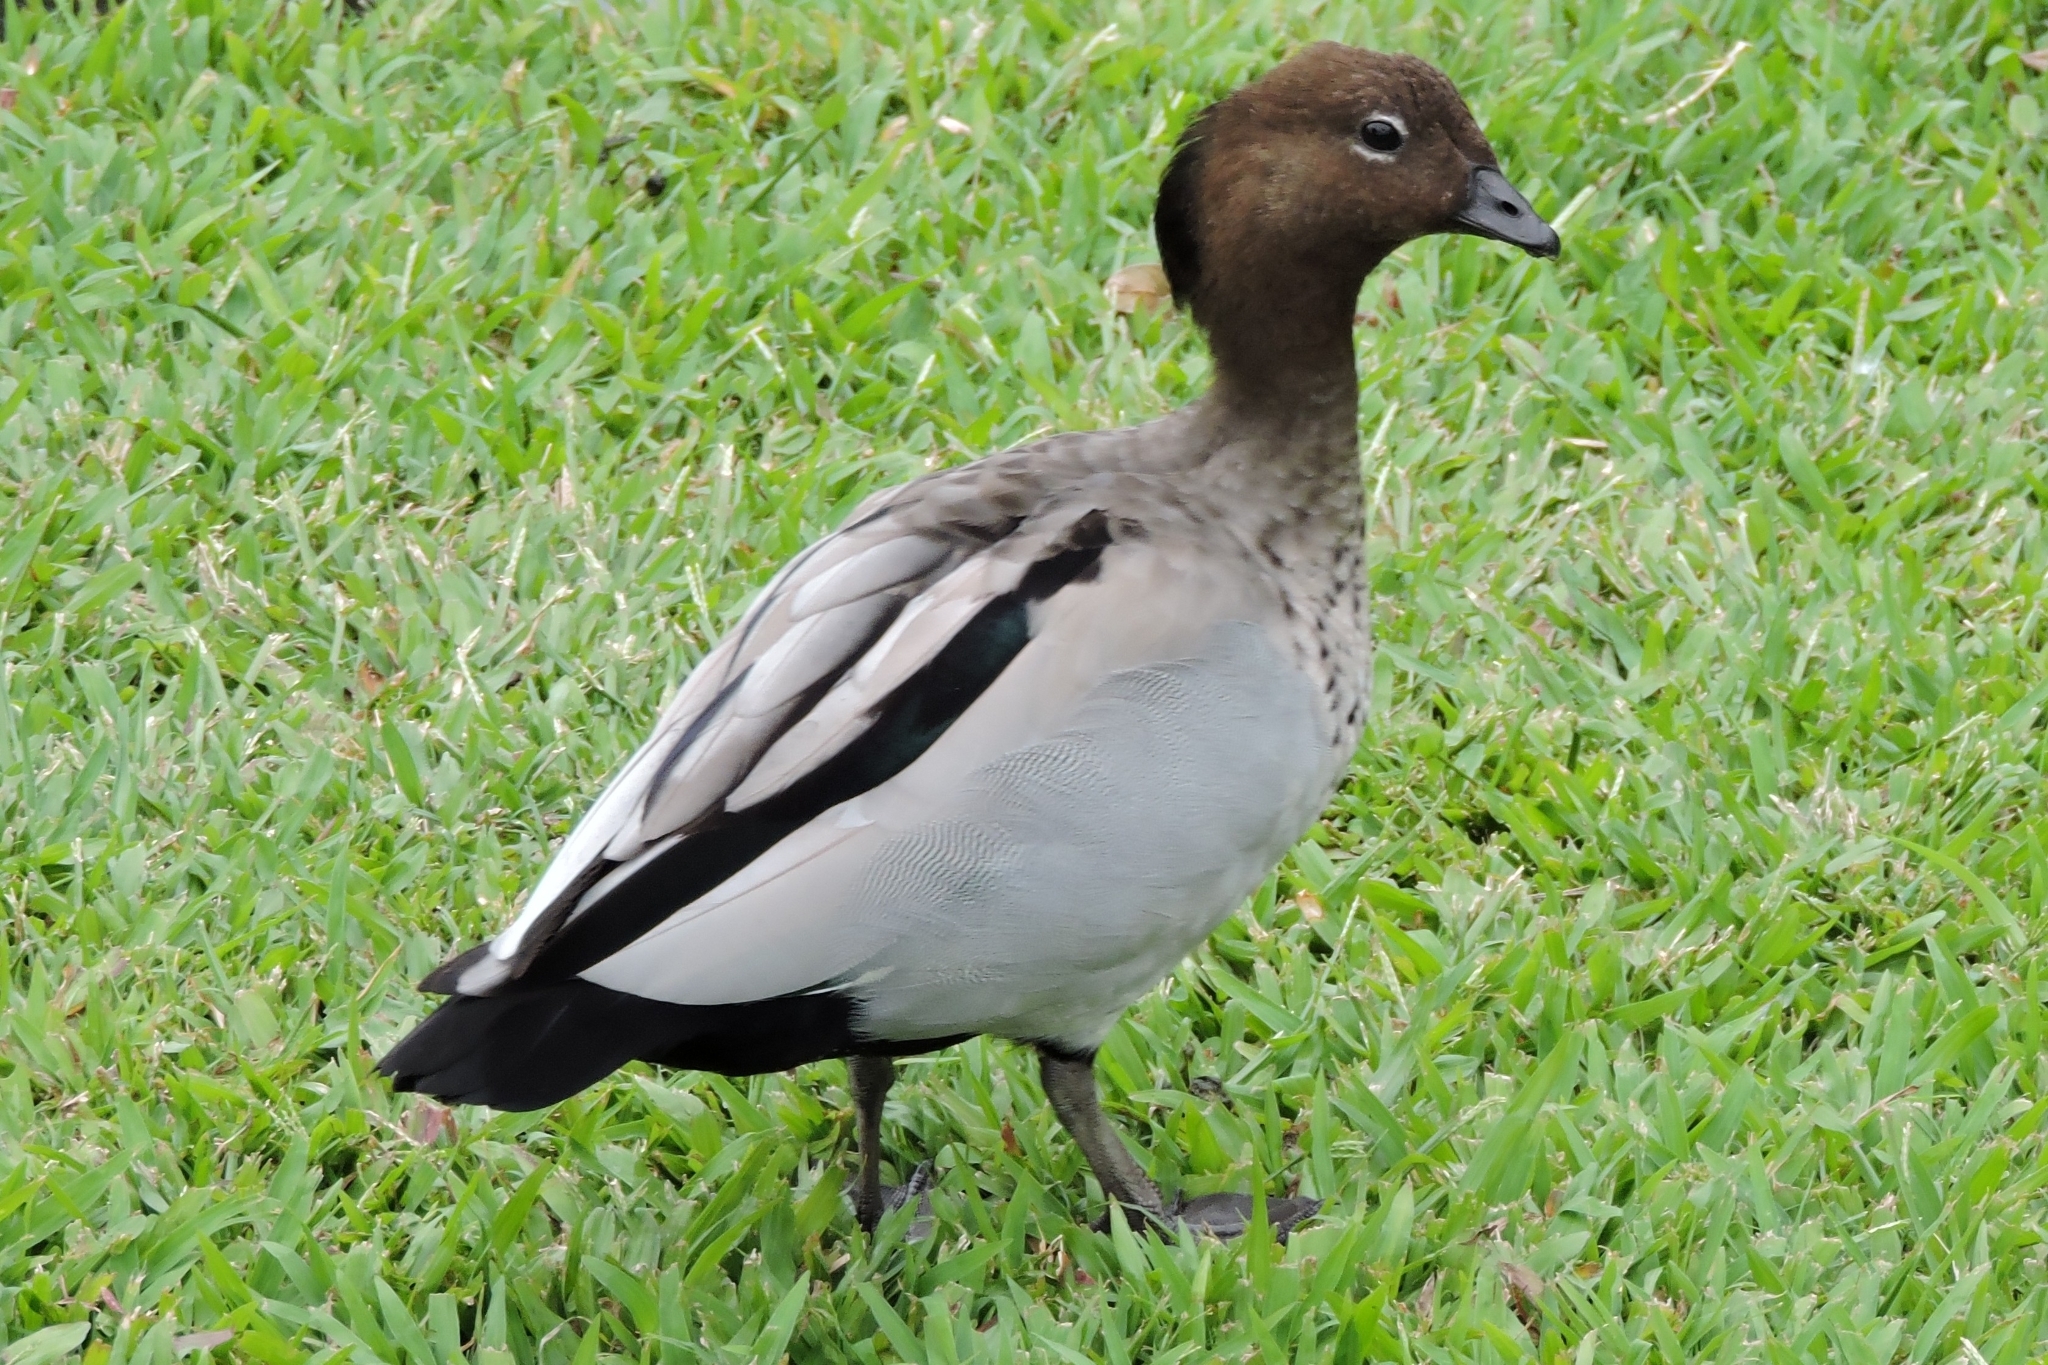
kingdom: Animalia
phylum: Chordata
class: Aves
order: Anseriformes
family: Anatidae
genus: Chenonetta
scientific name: Chenonetta jubata
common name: Maned duck
